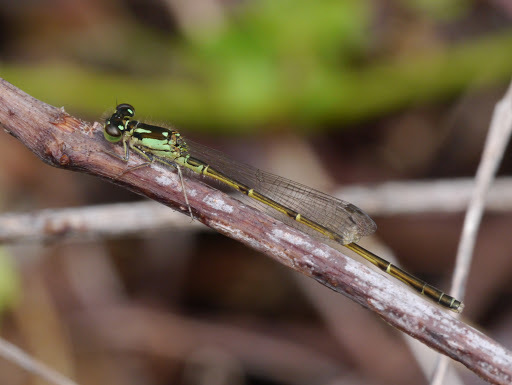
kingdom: Animalia
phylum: Arthropoda
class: Insecta
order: Odonata
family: Coenagrionidae
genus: Ischnura
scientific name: Ischnura posita
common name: Fragile forktail
